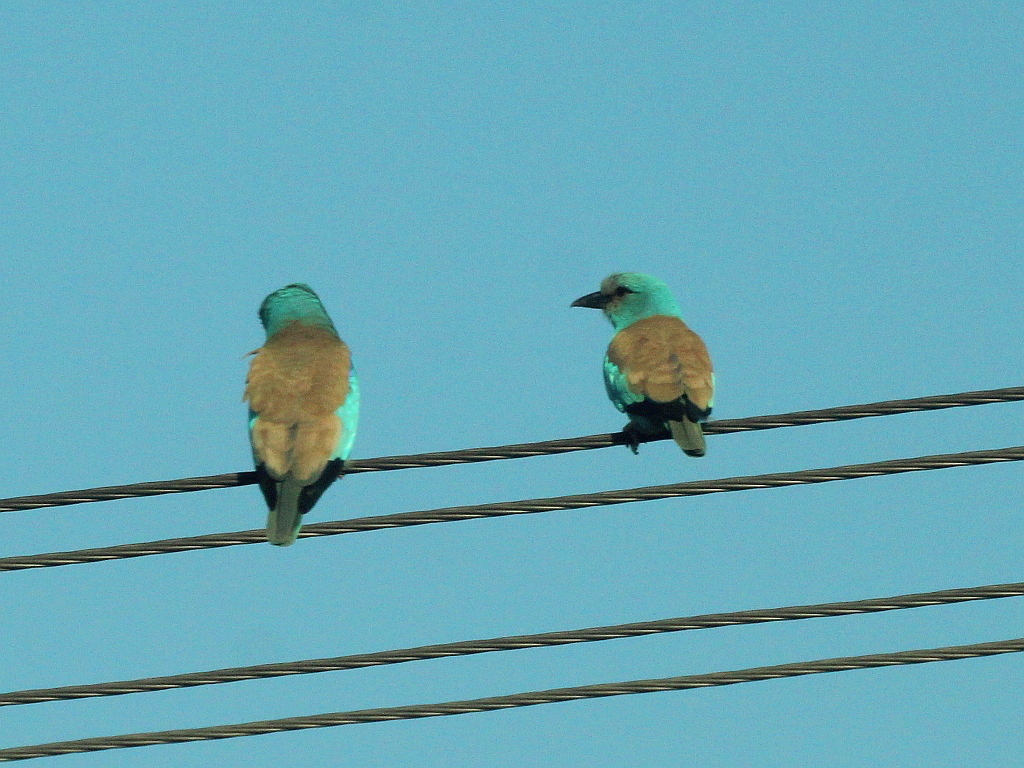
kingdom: Animalia
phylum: Chordata
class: Aves
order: Coraciiformes
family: Coraciidae
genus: Coracias
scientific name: Coracias garrulus
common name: European roller
